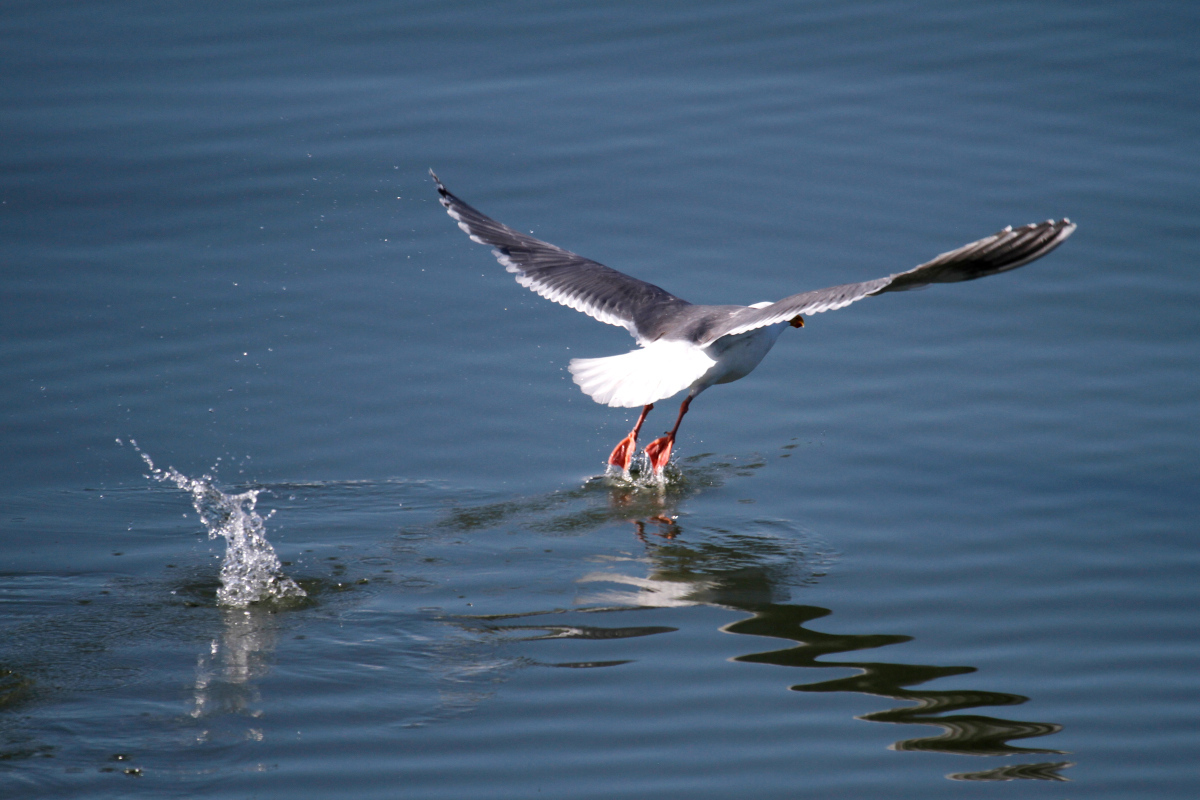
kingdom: Animalia
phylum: Chordata
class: Aves
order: Charadriiformes
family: Laridae
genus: Larus
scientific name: Larus glaucescens
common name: Glaucous-winged gull
